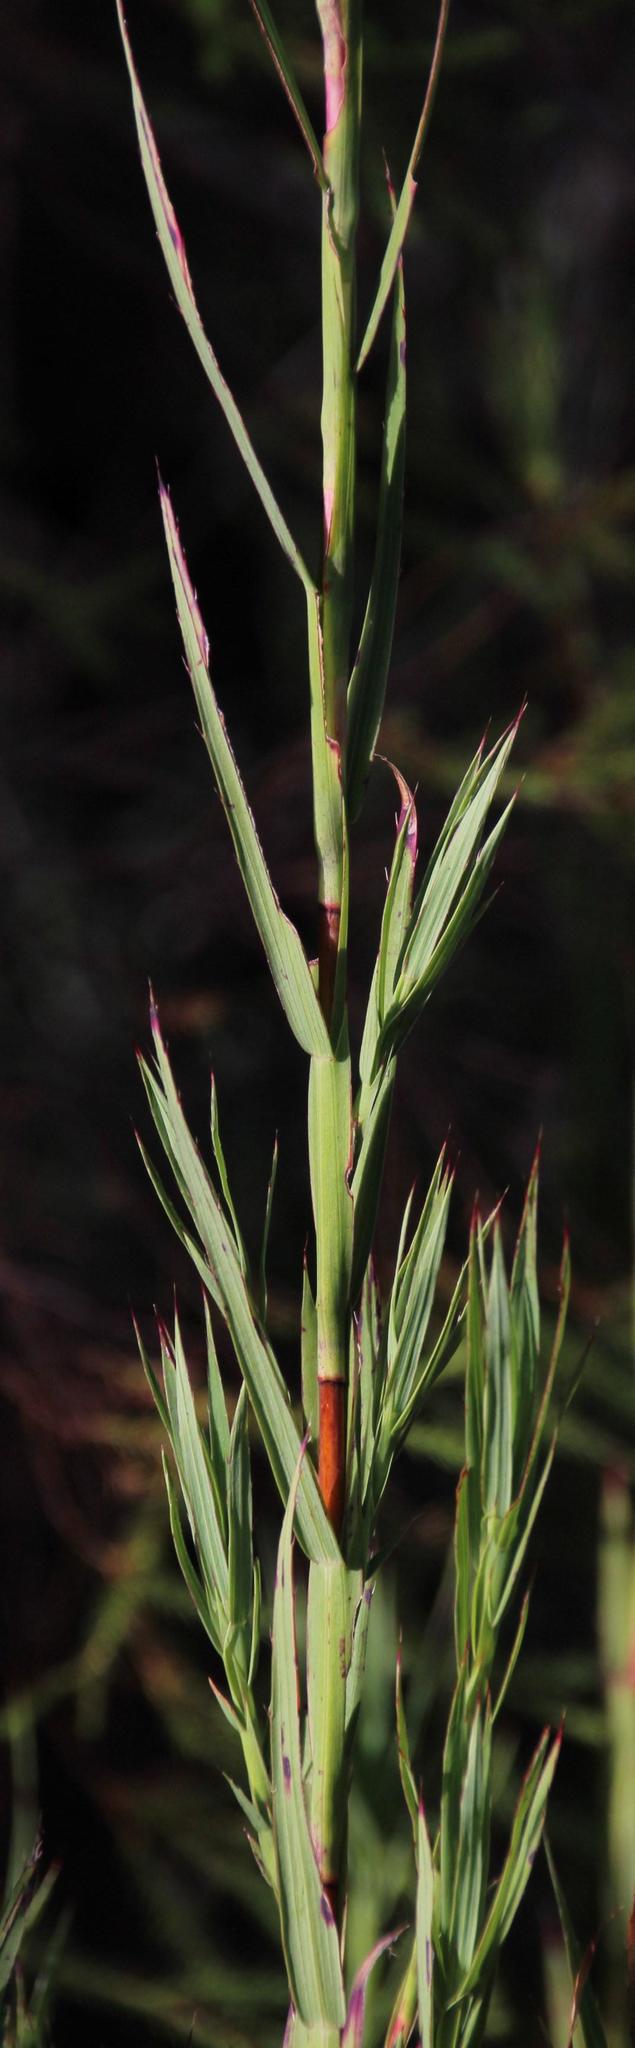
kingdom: Plantae
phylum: Tracheophyta
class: Magnoliopsida
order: Rosales
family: Rosaceae
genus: Cliffortia
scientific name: Cliffortia graminea
